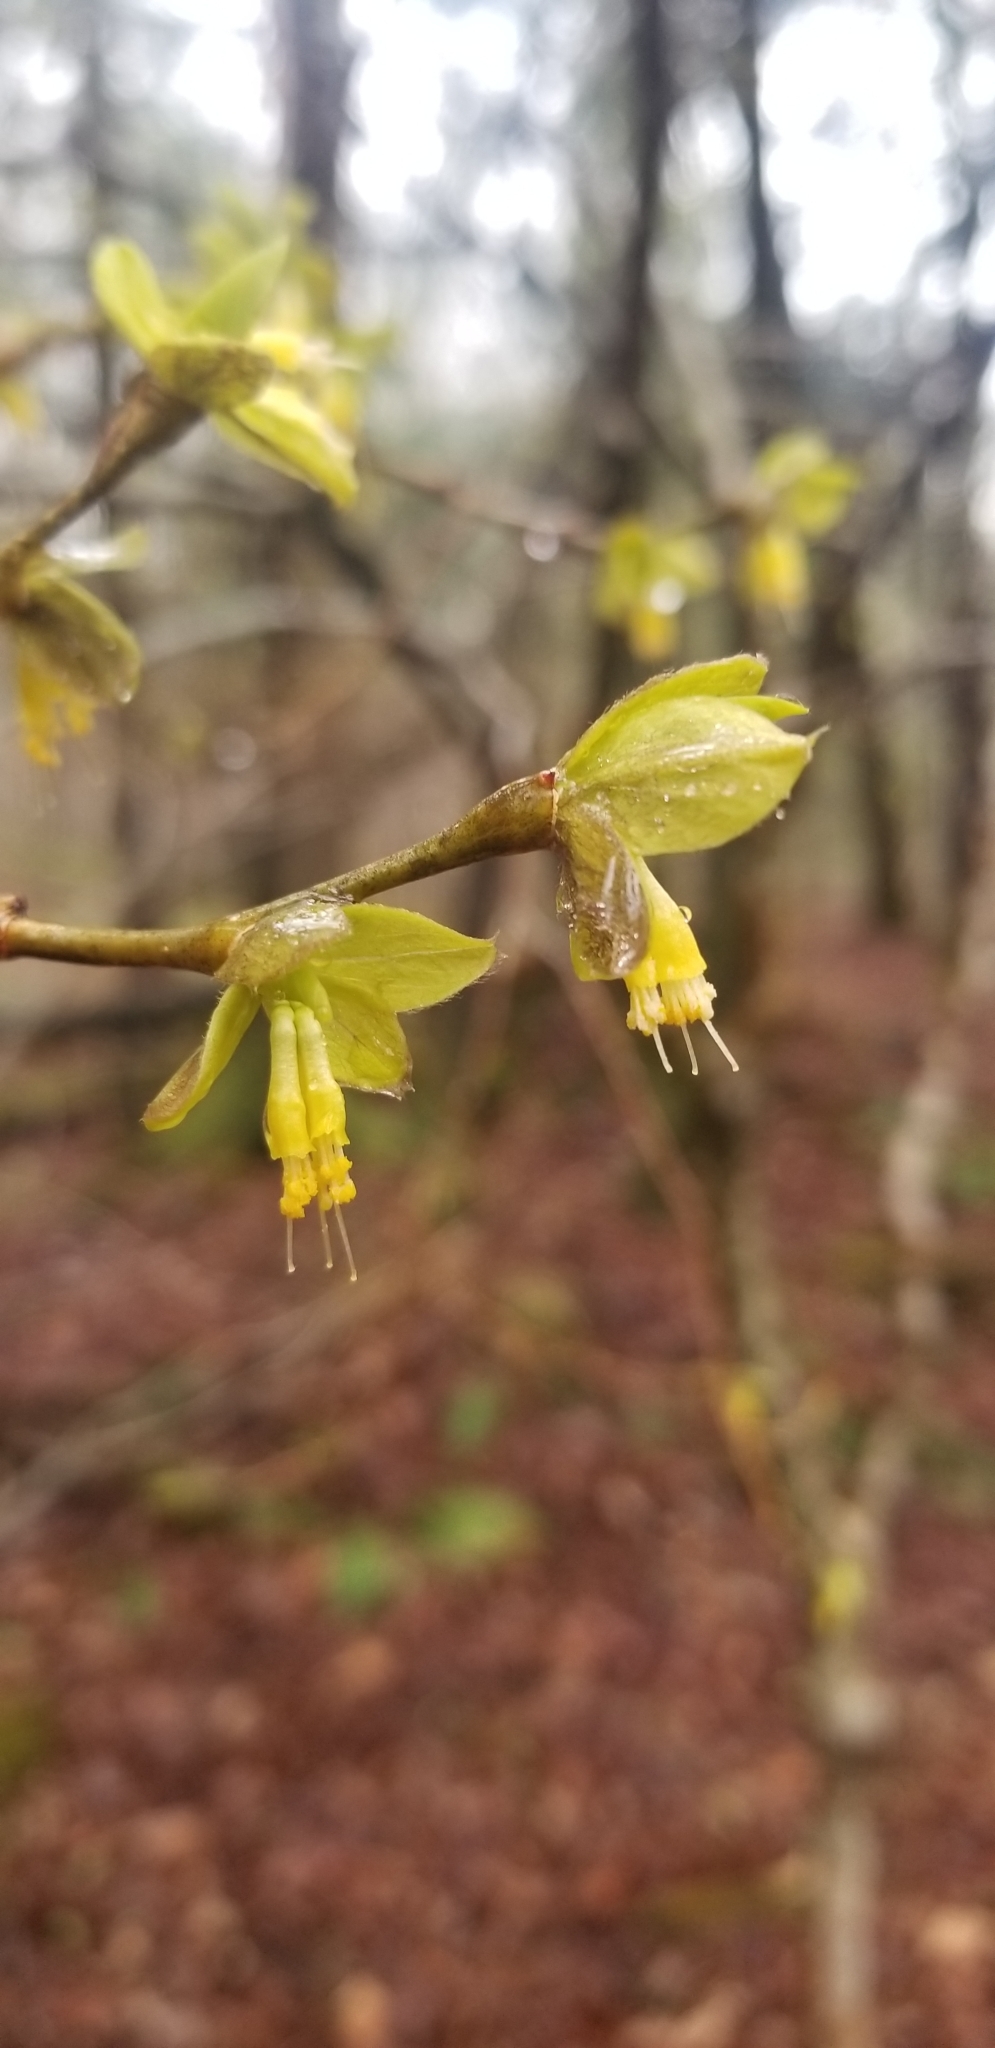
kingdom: Plantae
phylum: Tracheophyta
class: Magnoliopsida
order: Malvales
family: Thymelaeaceae
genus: Dirca
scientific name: Dirca palustris
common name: Leatherwood
